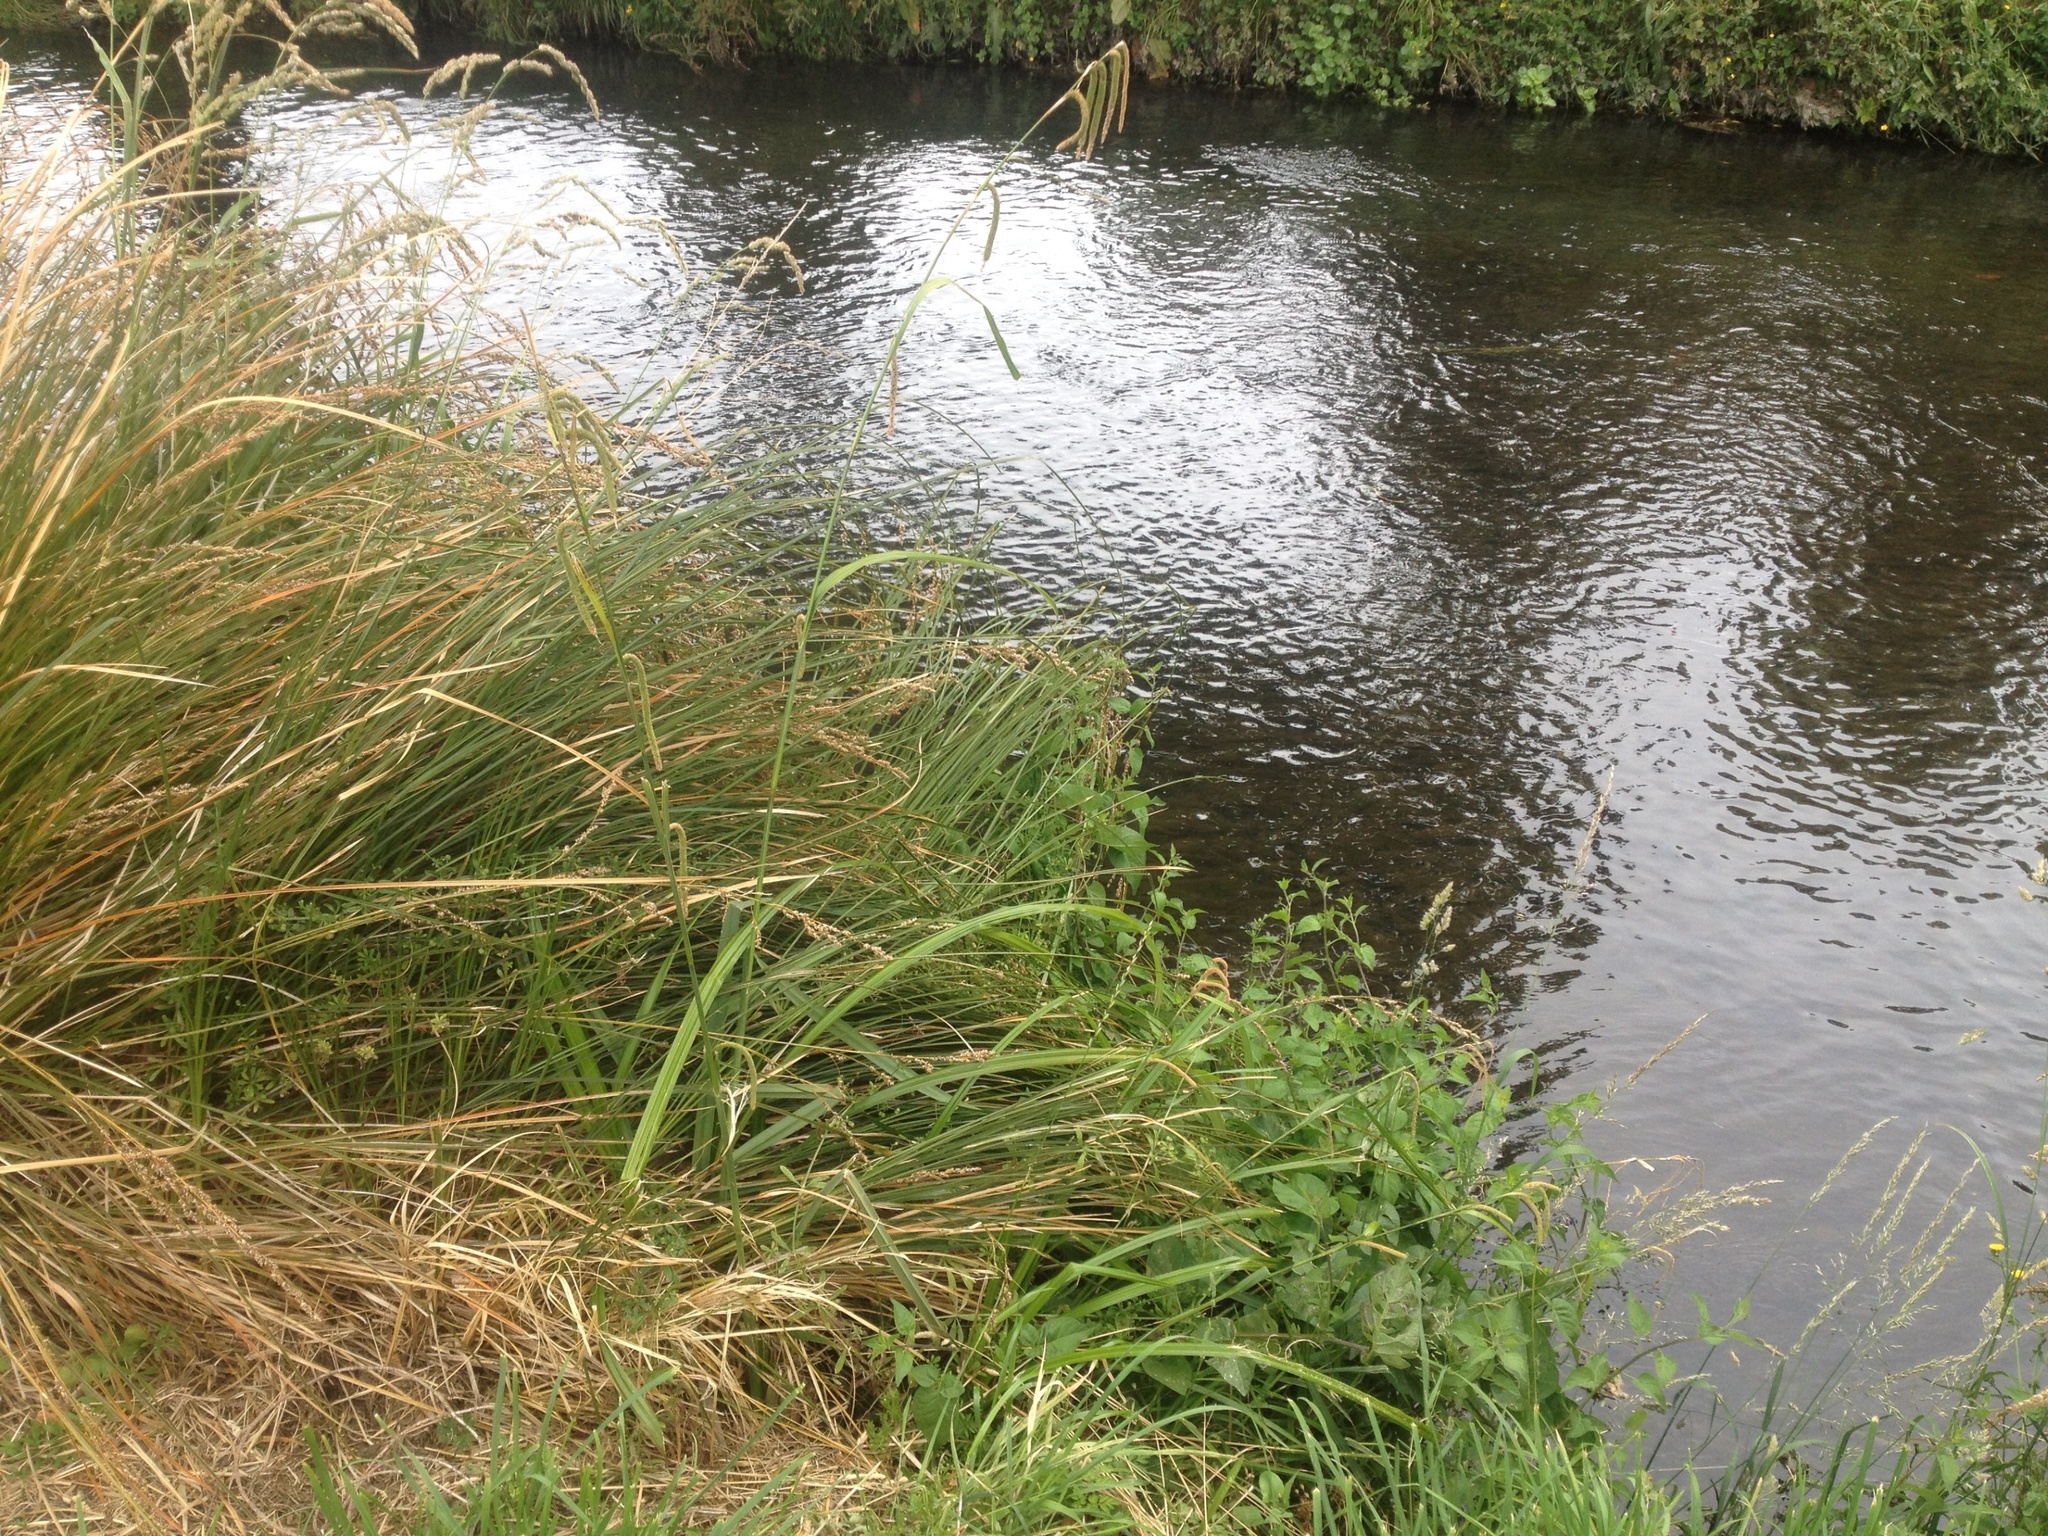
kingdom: Plantae
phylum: Tracheophyta
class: Liliopsida
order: Poales
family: Cyperaceae
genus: Carex
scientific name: Carex pendula
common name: Pendulous sedge
